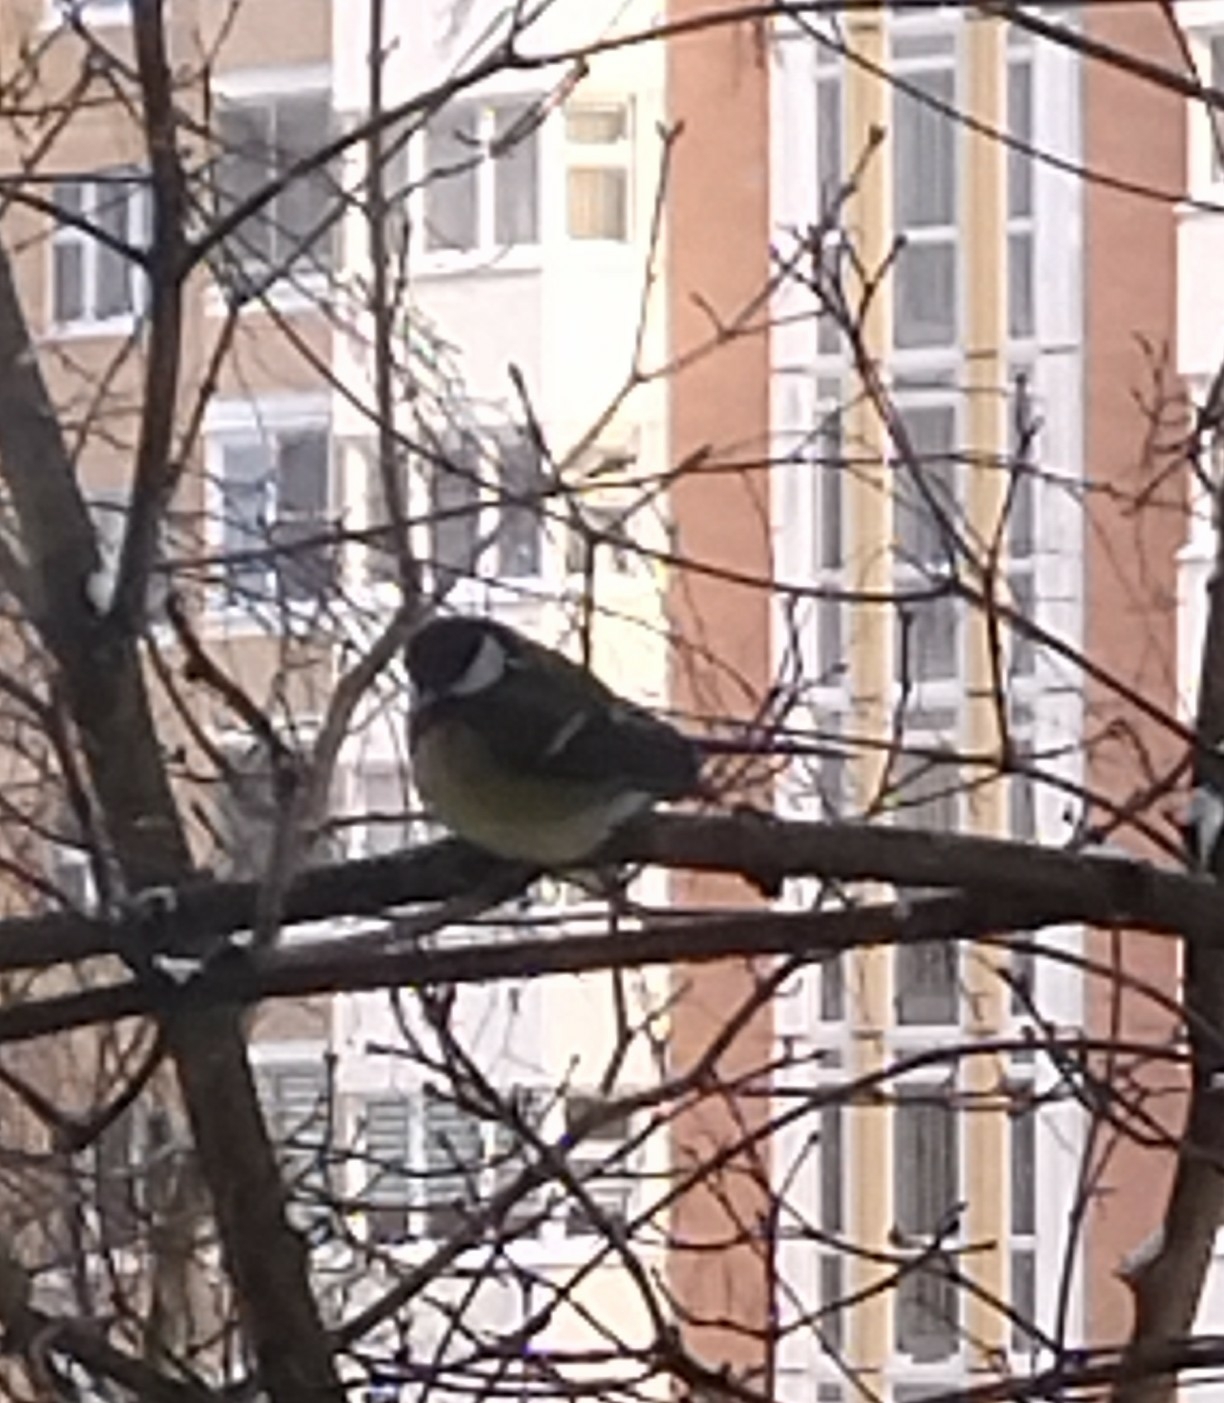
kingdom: Animalia
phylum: Chordata
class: Aves
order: Passeriformes
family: Paridae
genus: Parus
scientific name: Parus major
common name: Great tit
